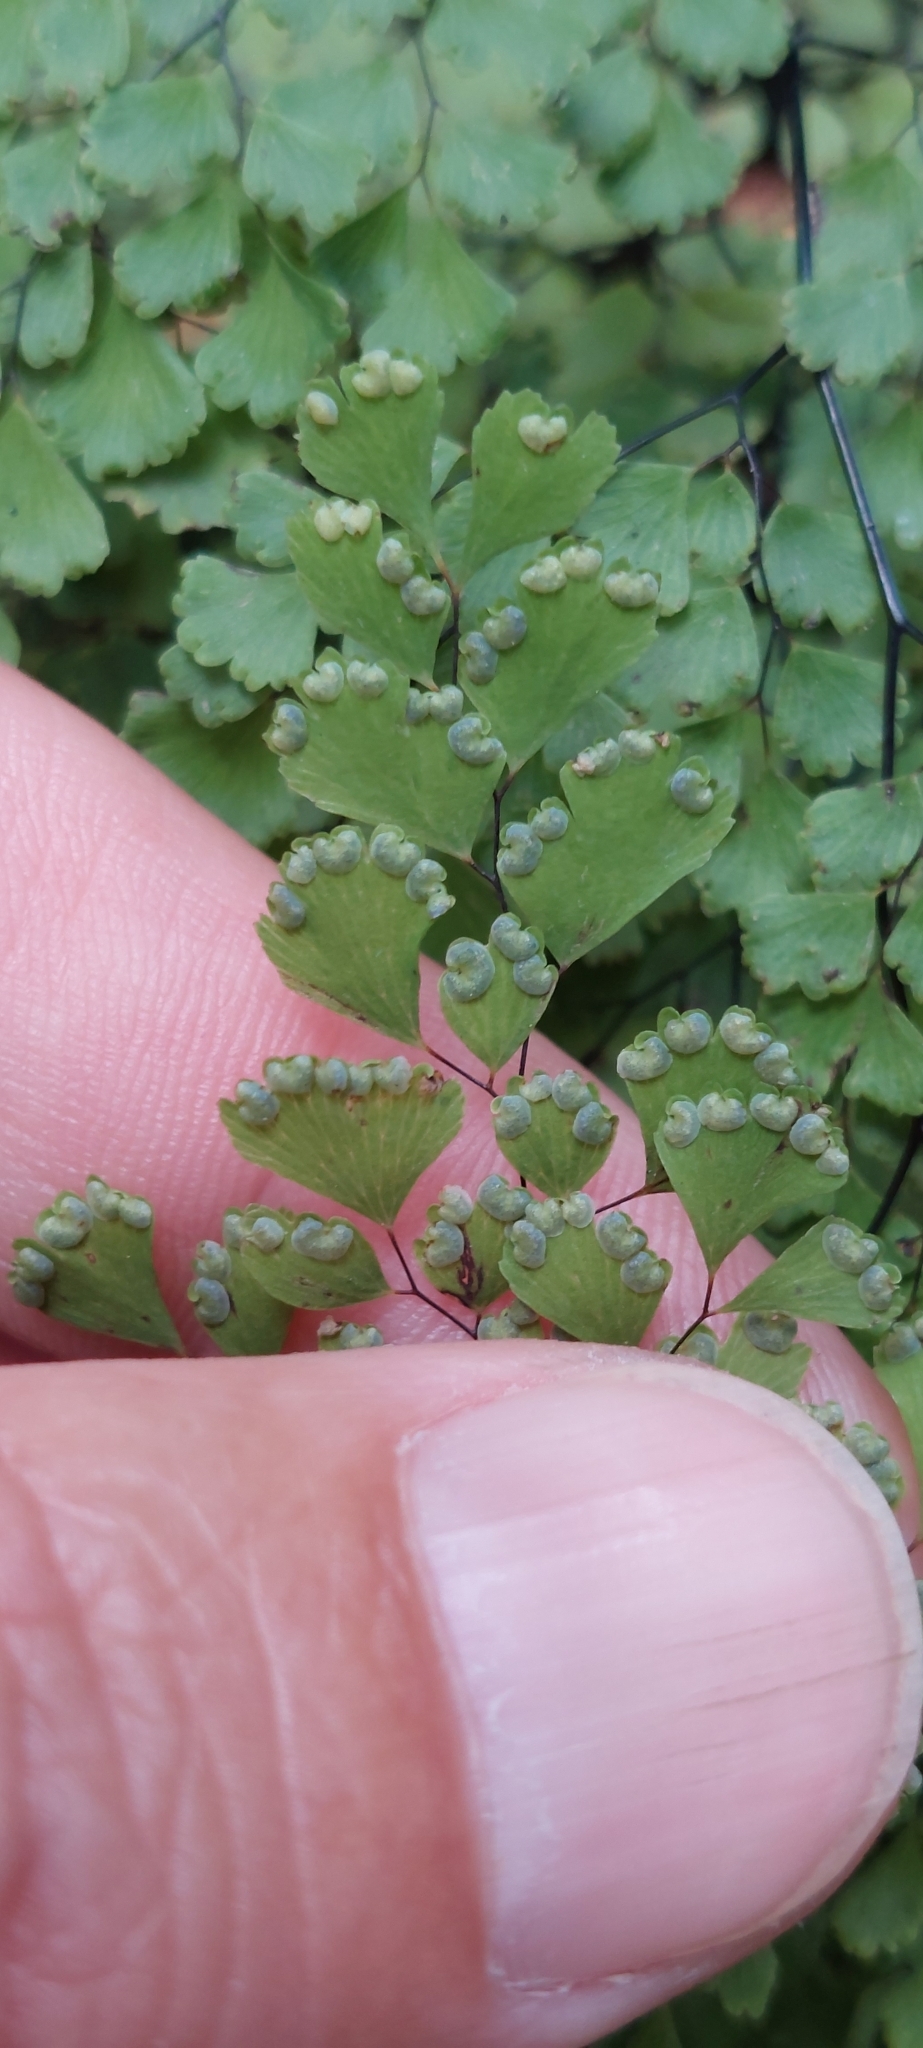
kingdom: Plantae
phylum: Tracheophyta
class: Polypodiopsida
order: Polypodiales
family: Pteridaceae
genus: Adiantum
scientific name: Adiantum raddianum
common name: Delta maidenhair fern
